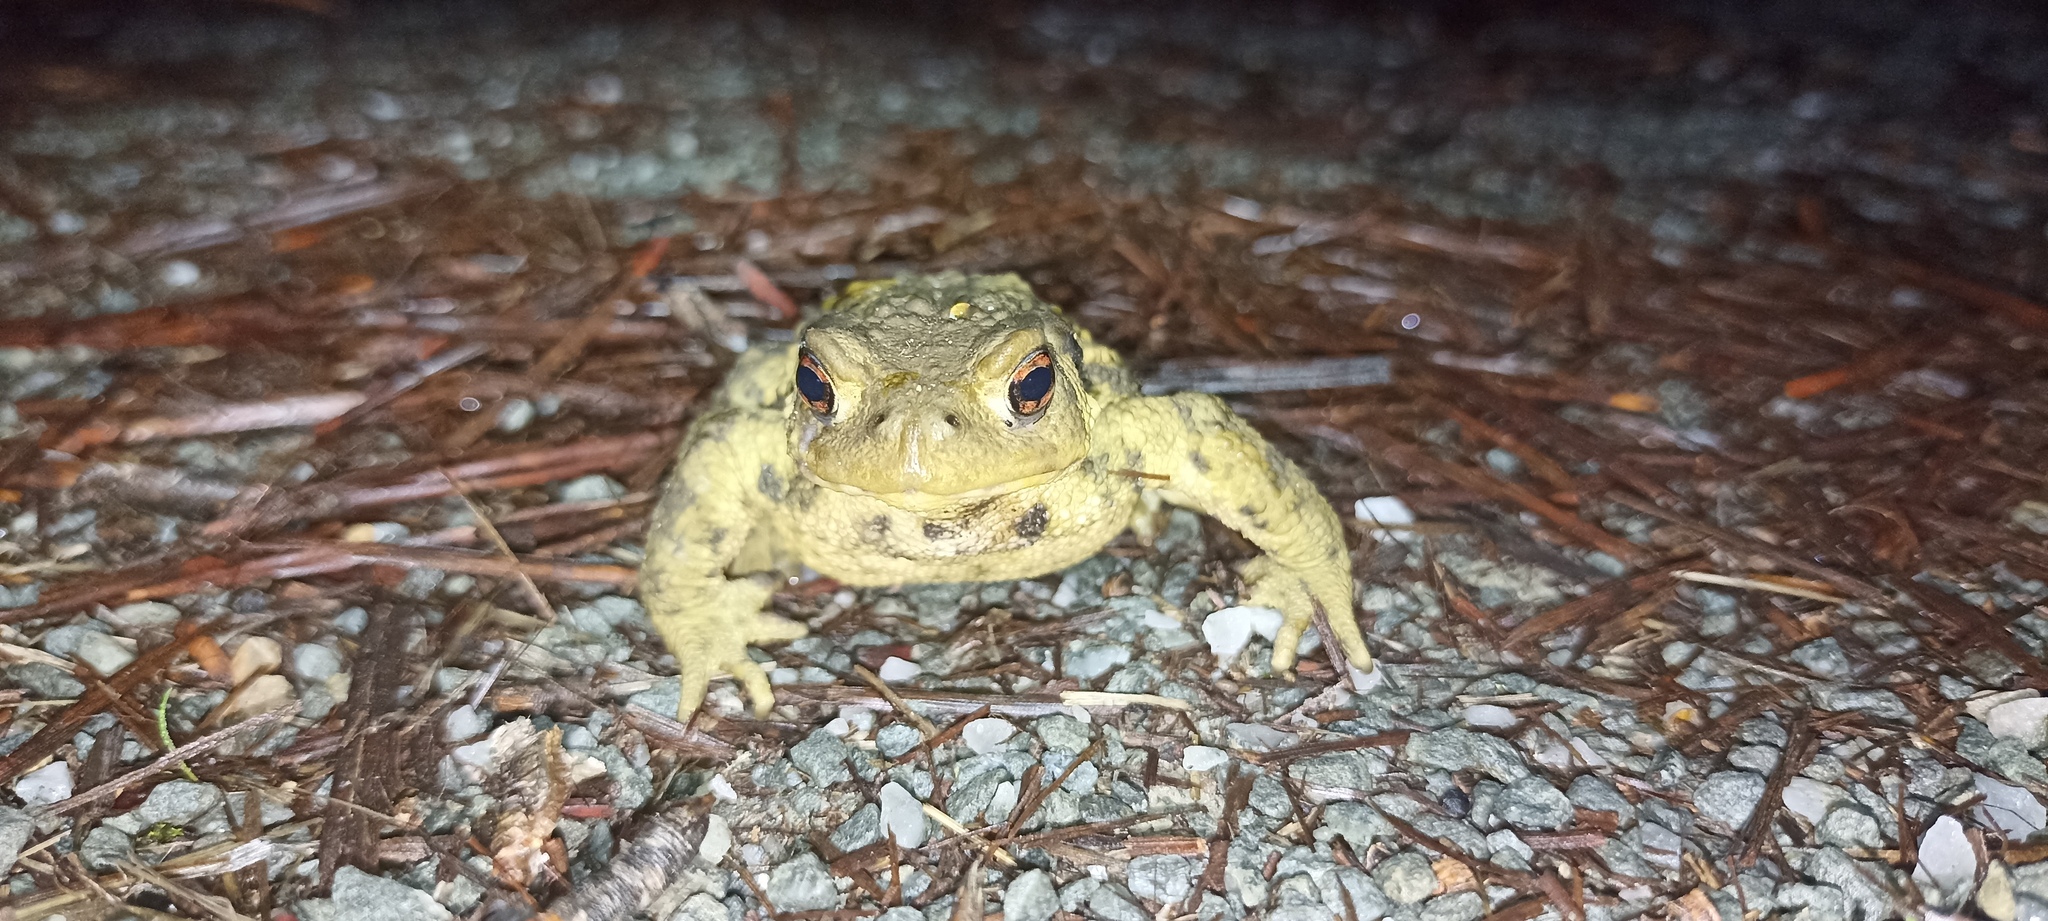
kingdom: Animalia
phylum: Chordata
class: Amphibia
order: Anura
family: Bufonidae
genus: Bufo
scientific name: Bufo spinosus
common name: Western common toad
